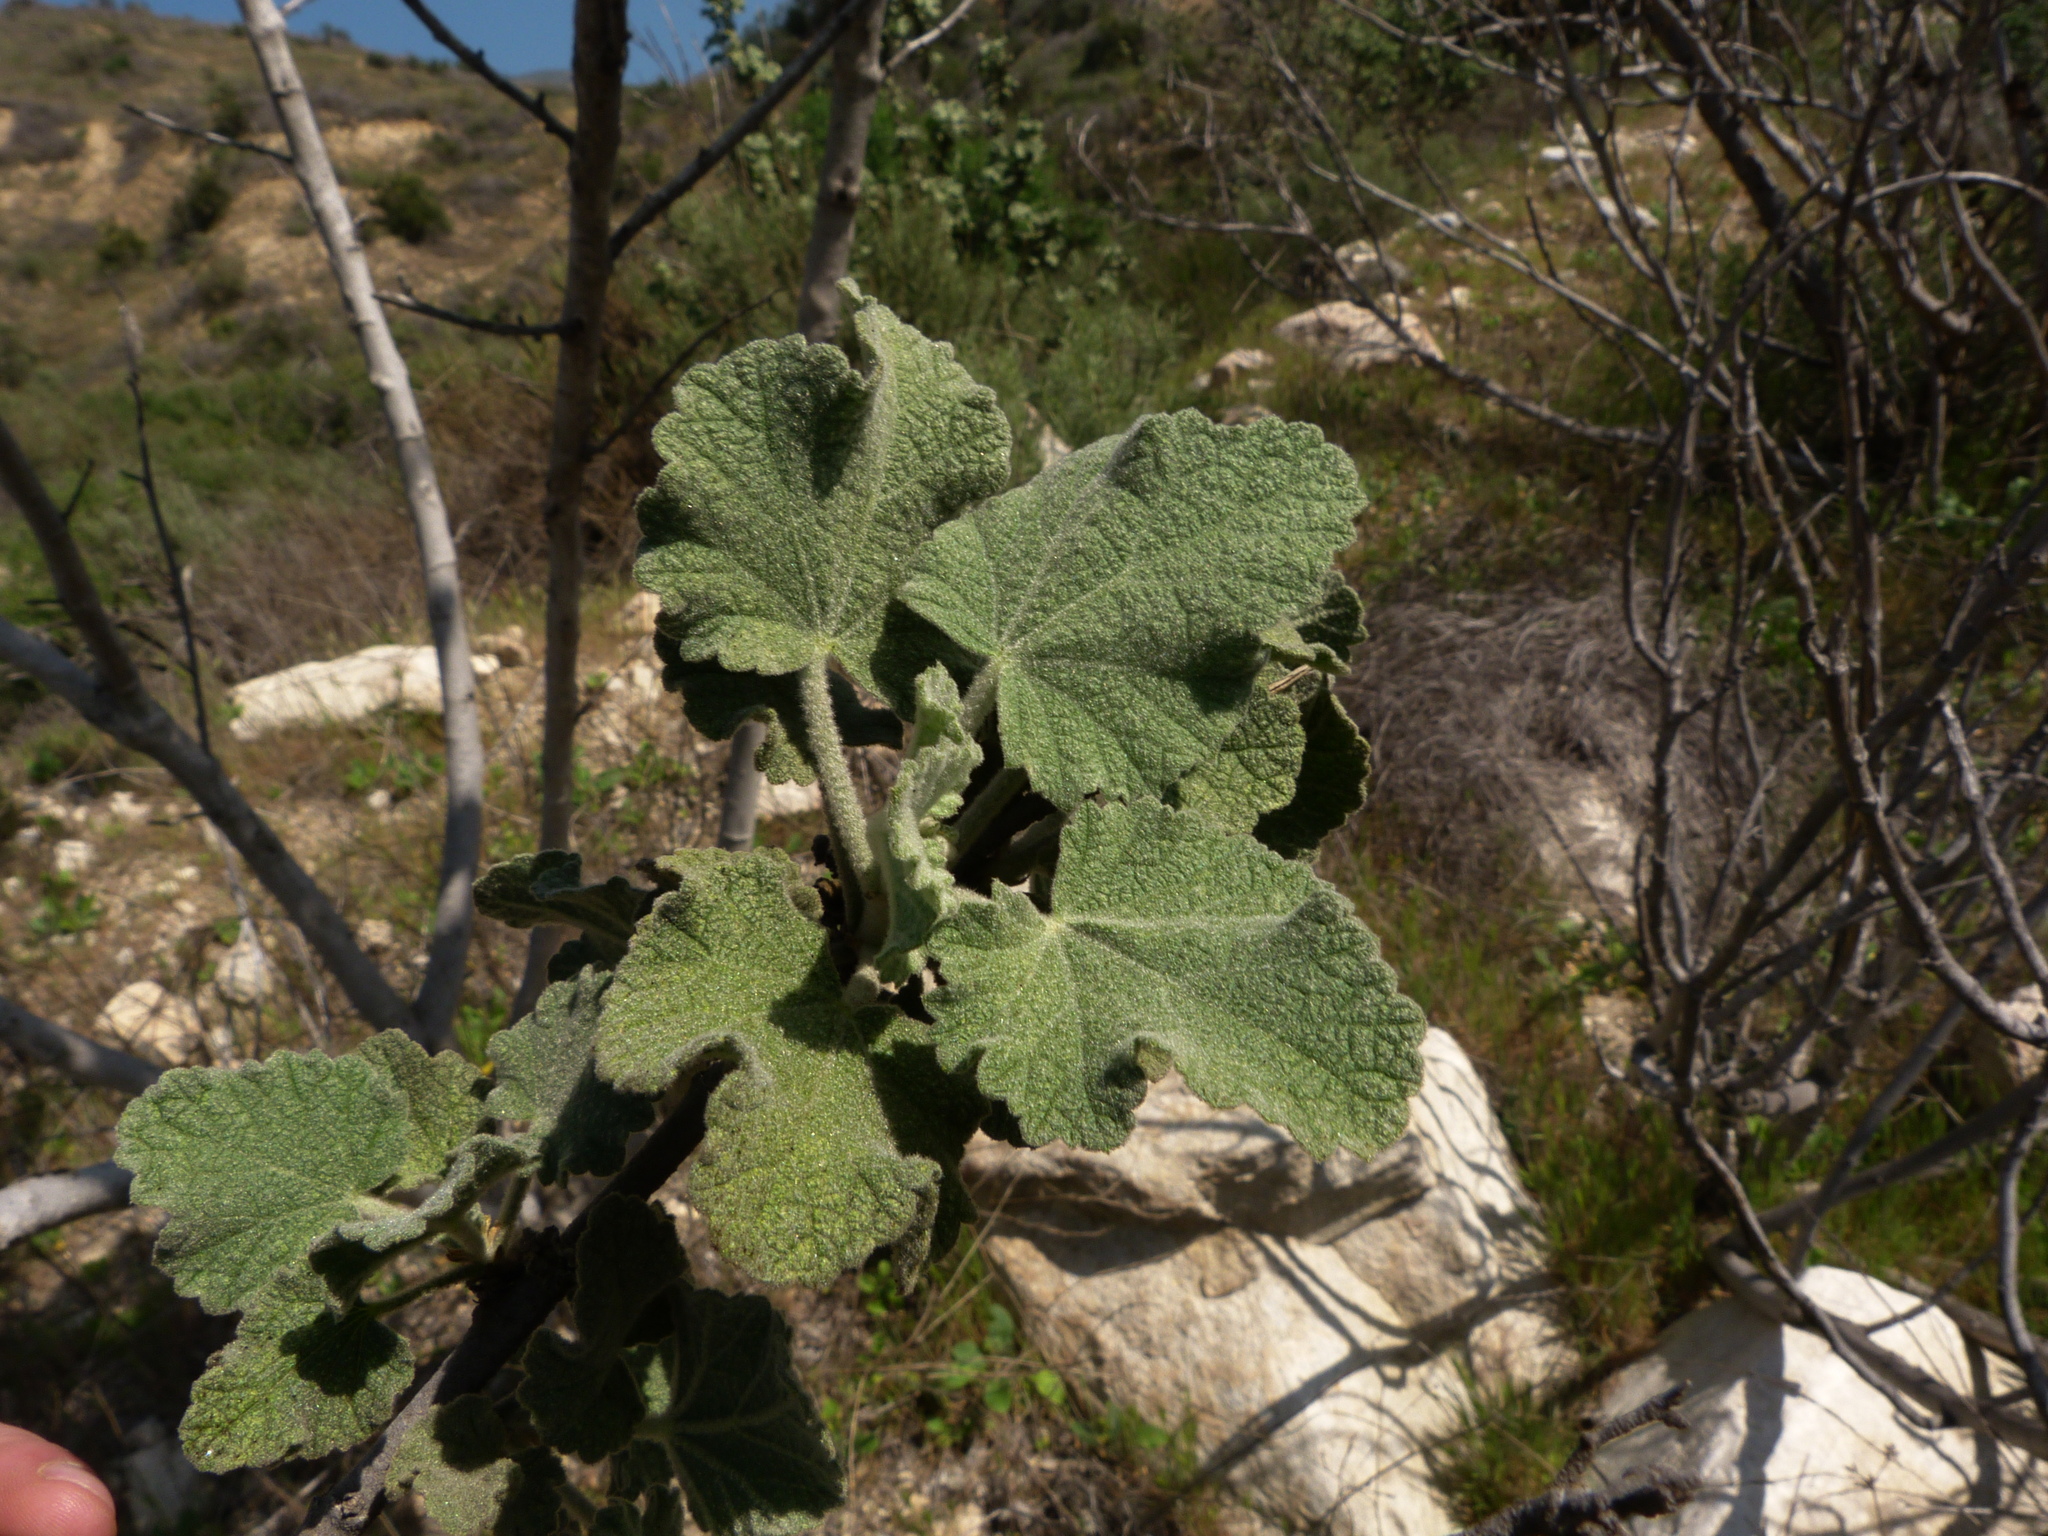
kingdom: Plantae
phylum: Tracheophyta
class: Magnoliopsida
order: Malvales
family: Malvaceae
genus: Malacothamnus
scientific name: Malacothamnus davidsonii
